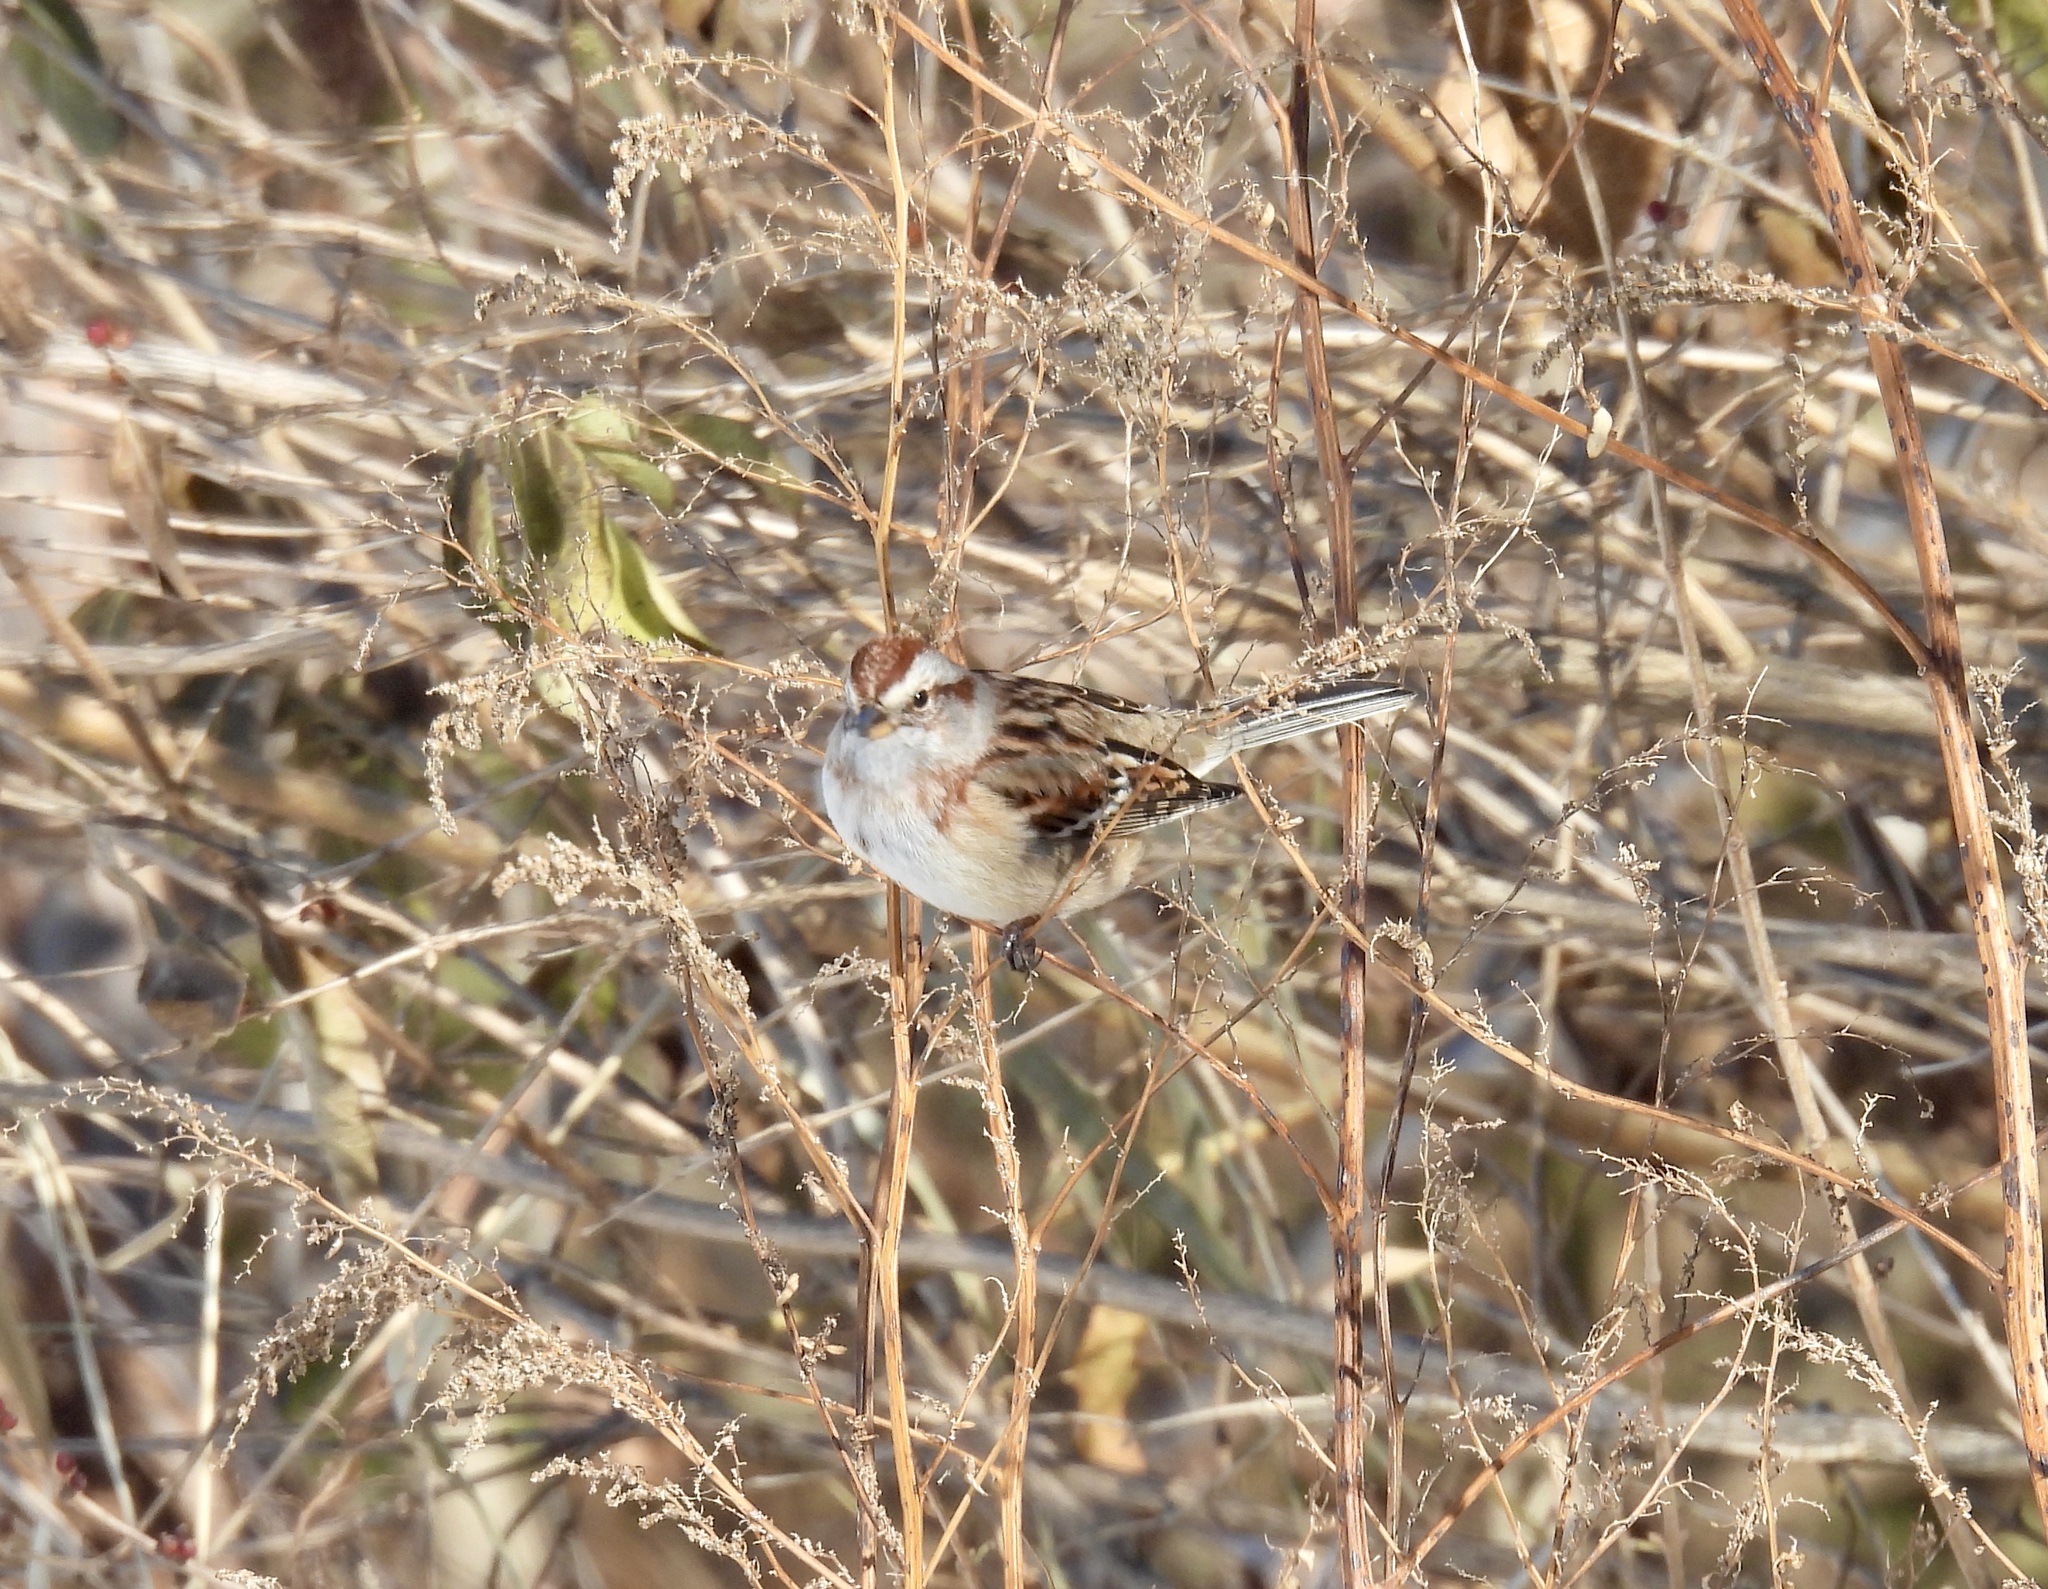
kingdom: Animalia
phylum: Chordata
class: Aves
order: Passeriformes
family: Passerellidae
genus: Spizelloides
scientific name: Spizelloides arborea
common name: American tree sparrow
